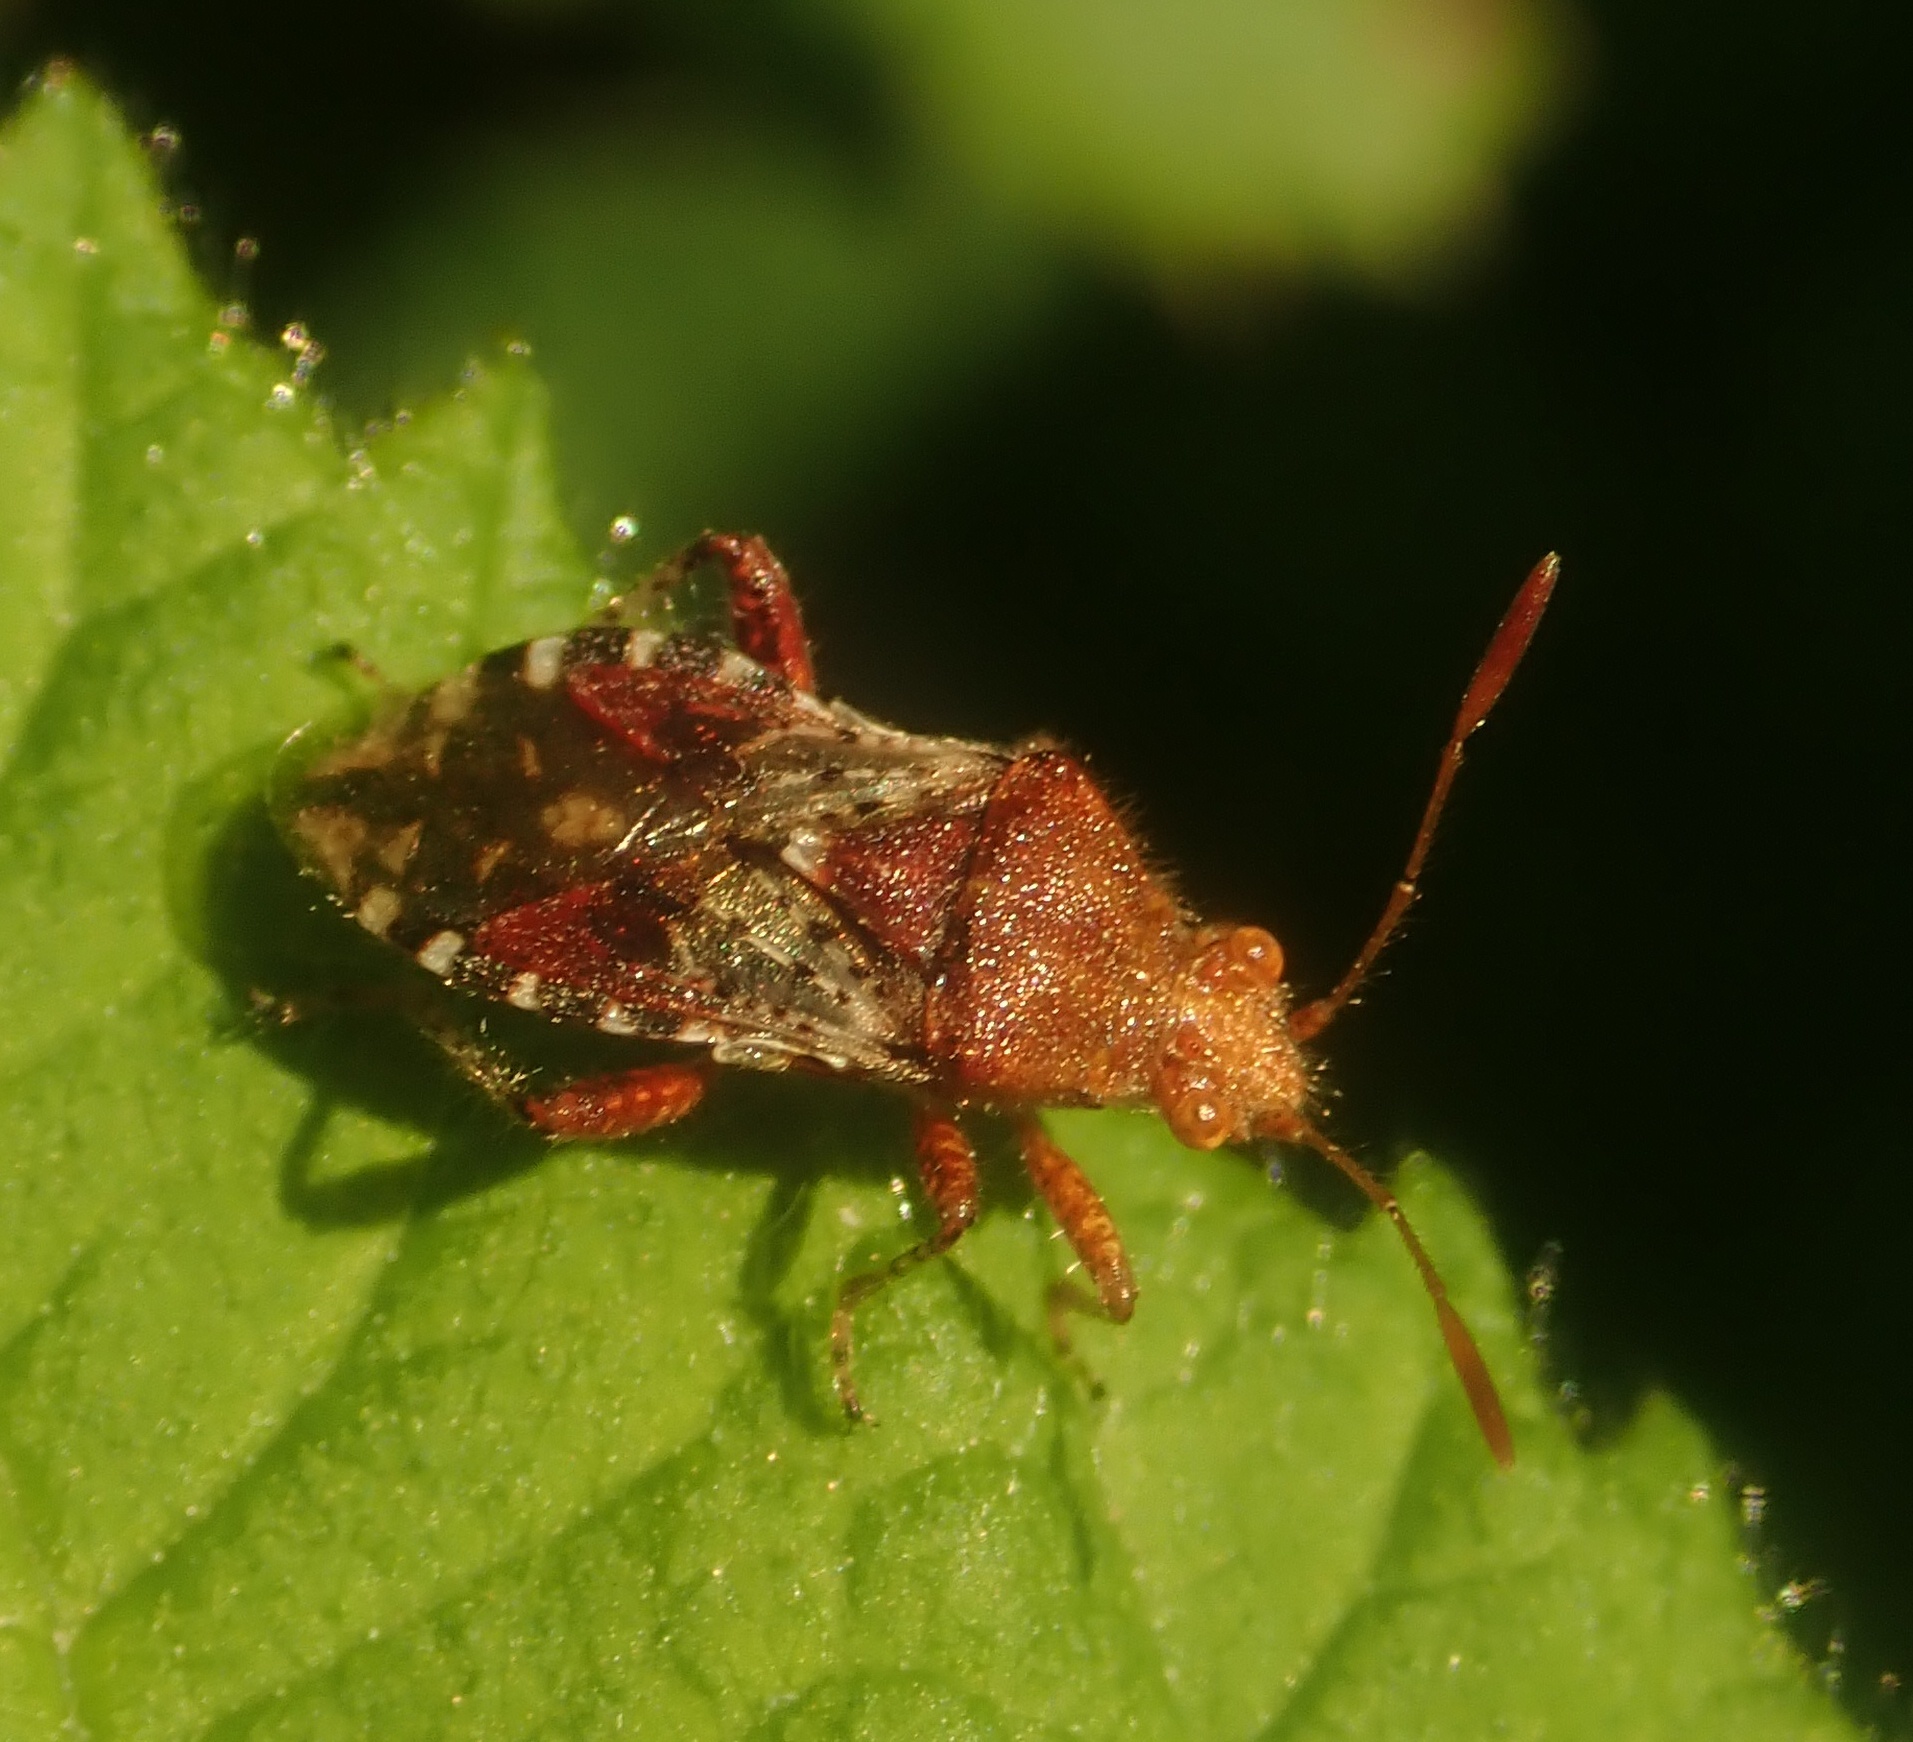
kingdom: Animalia
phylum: Arthropoda
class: Insecta
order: Hemiptera
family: Rhopalidae
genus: Rhopalus
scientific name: Rhopalus subrufus
